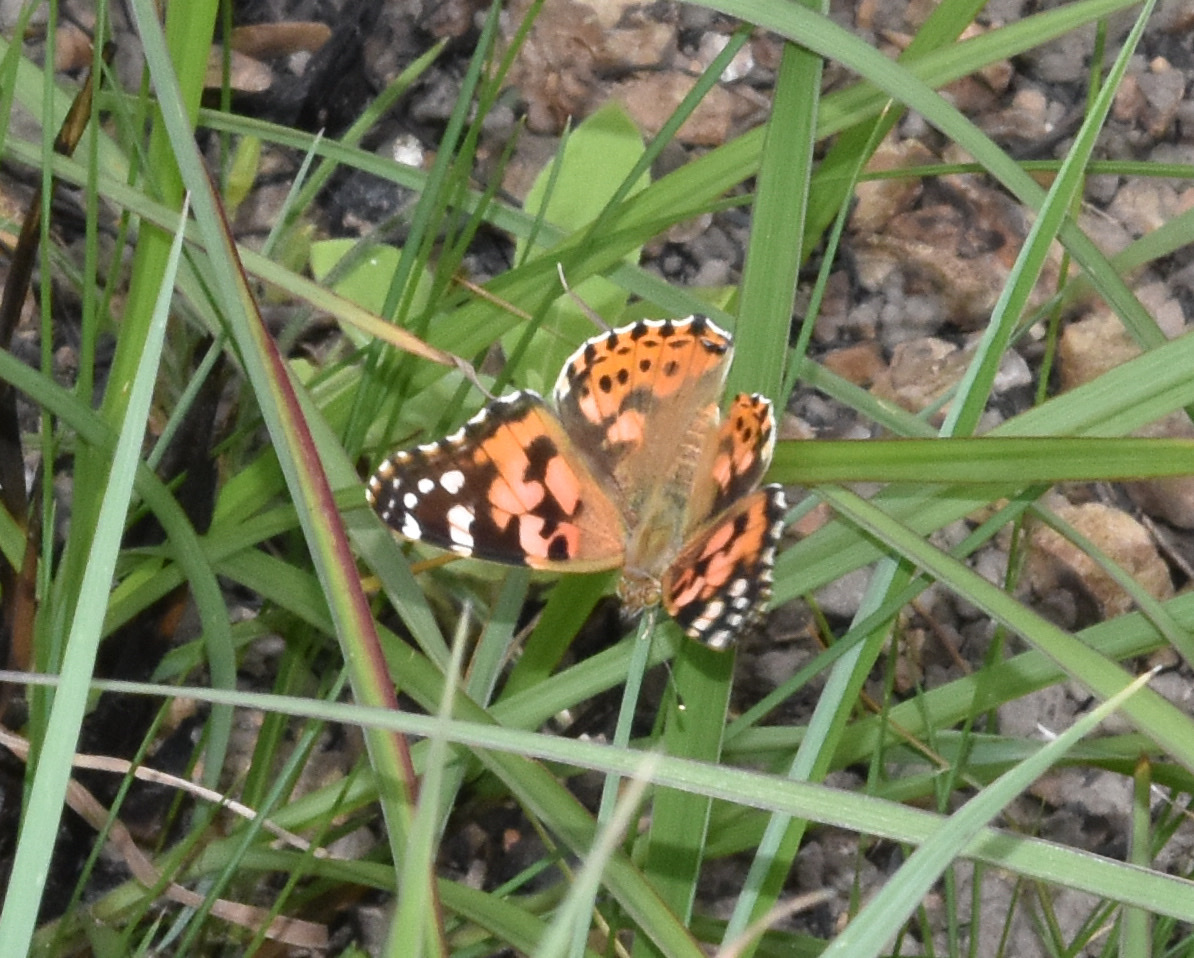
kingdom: Animalia
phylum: Arthropoda
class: Insecta
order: Lepidoptera
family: Nymphalidae
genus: Vanessa
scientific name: Vanessa cardui
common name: Painted lady
